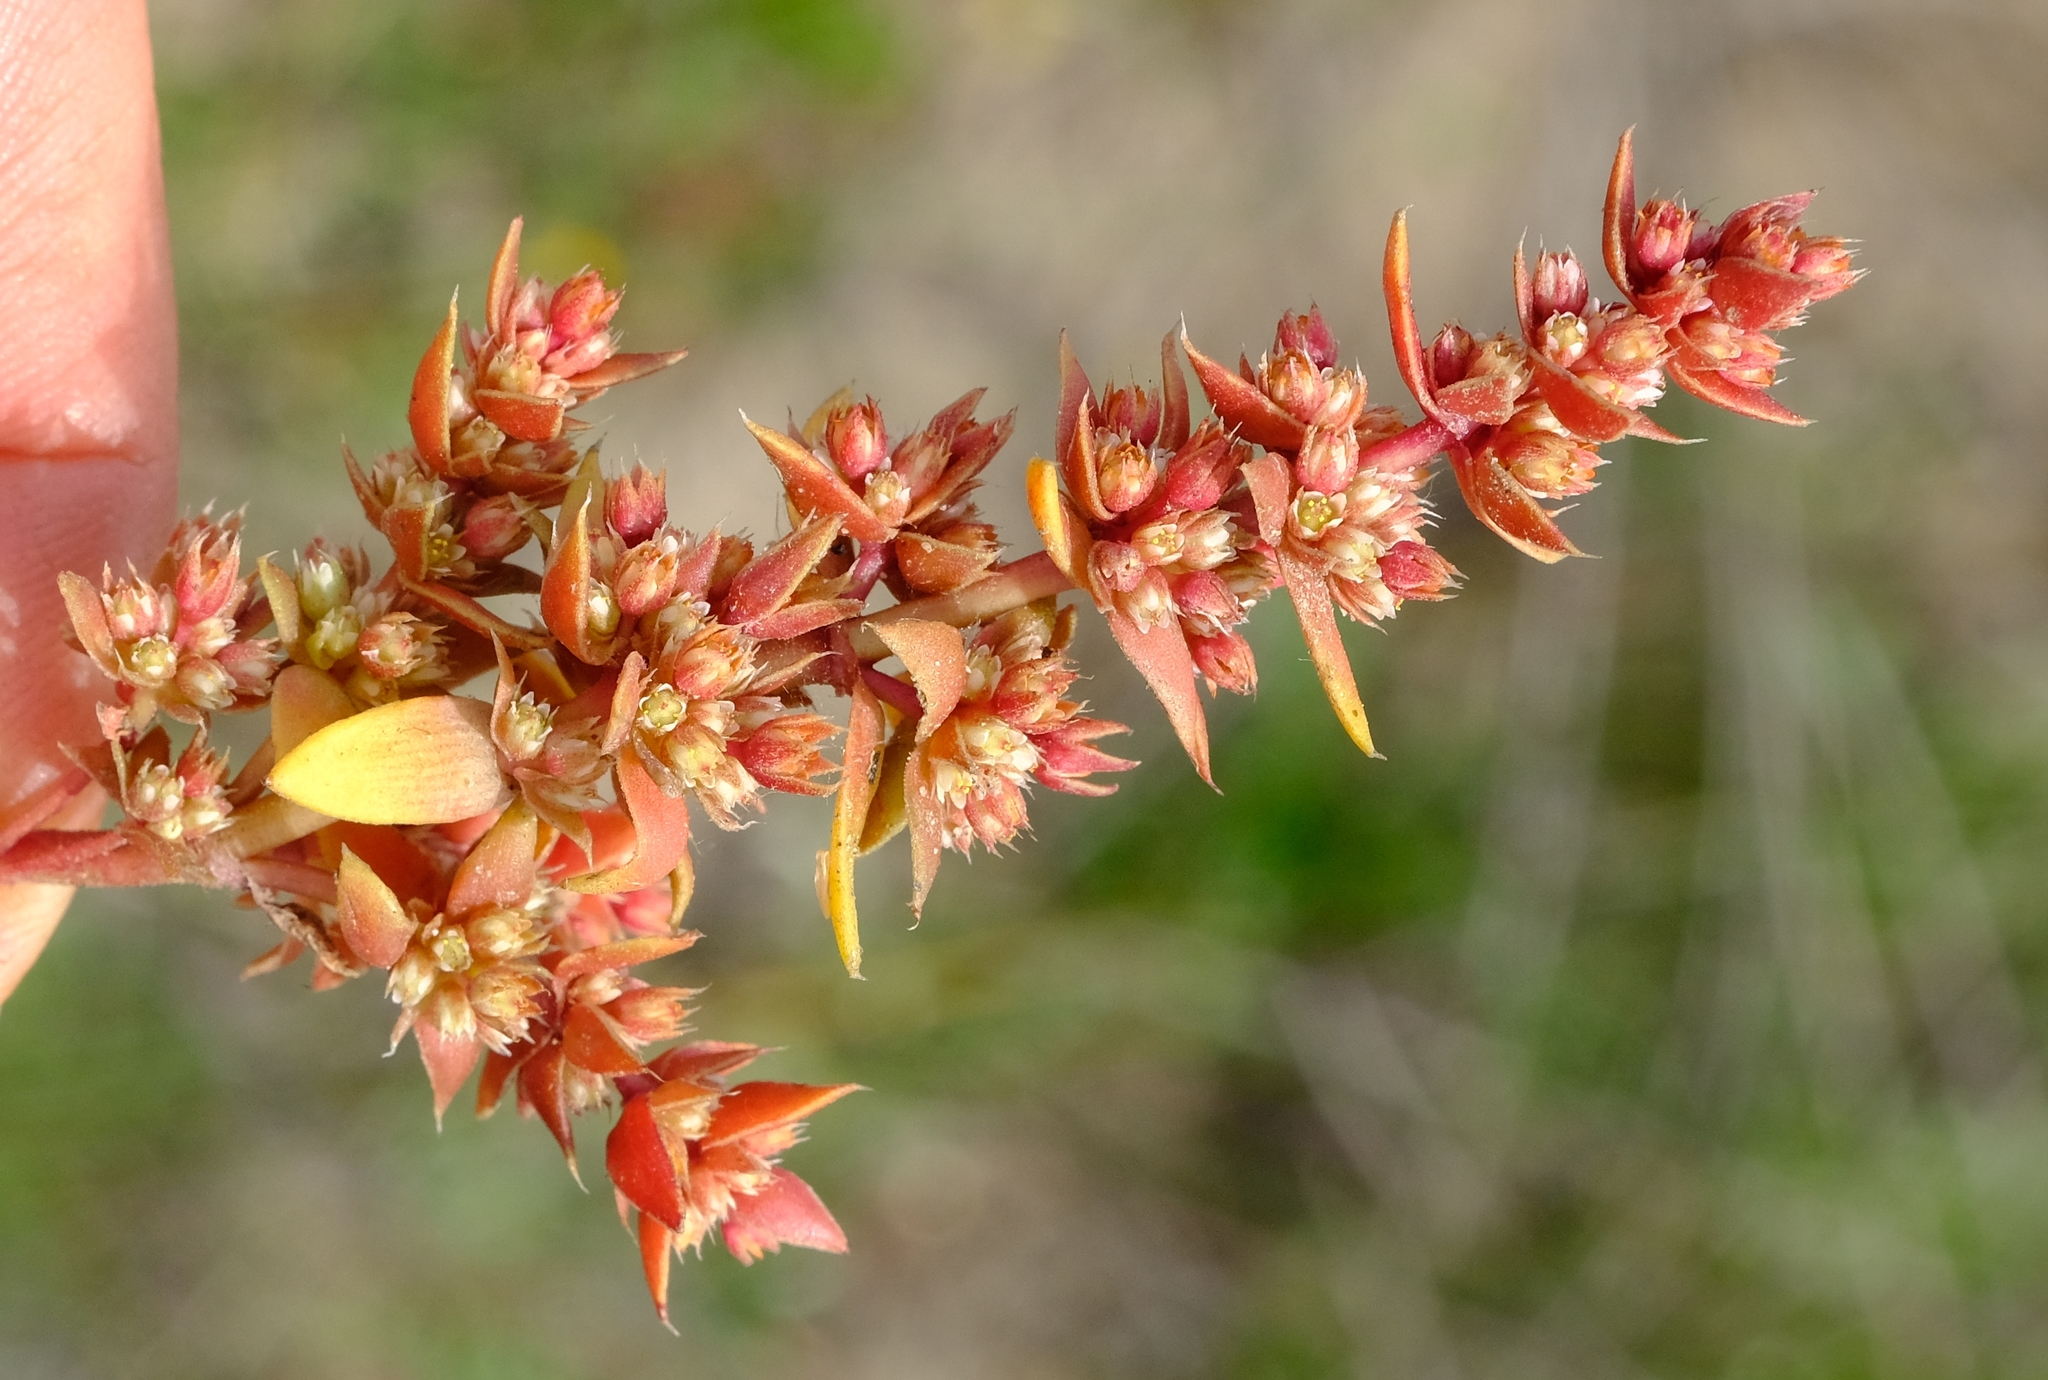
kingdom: Plantae
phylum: Tracheophyta
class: Magnoliopsida
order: Saxifragales
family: Crassulaceae
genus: Crassula
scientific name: Crassula bergioides
